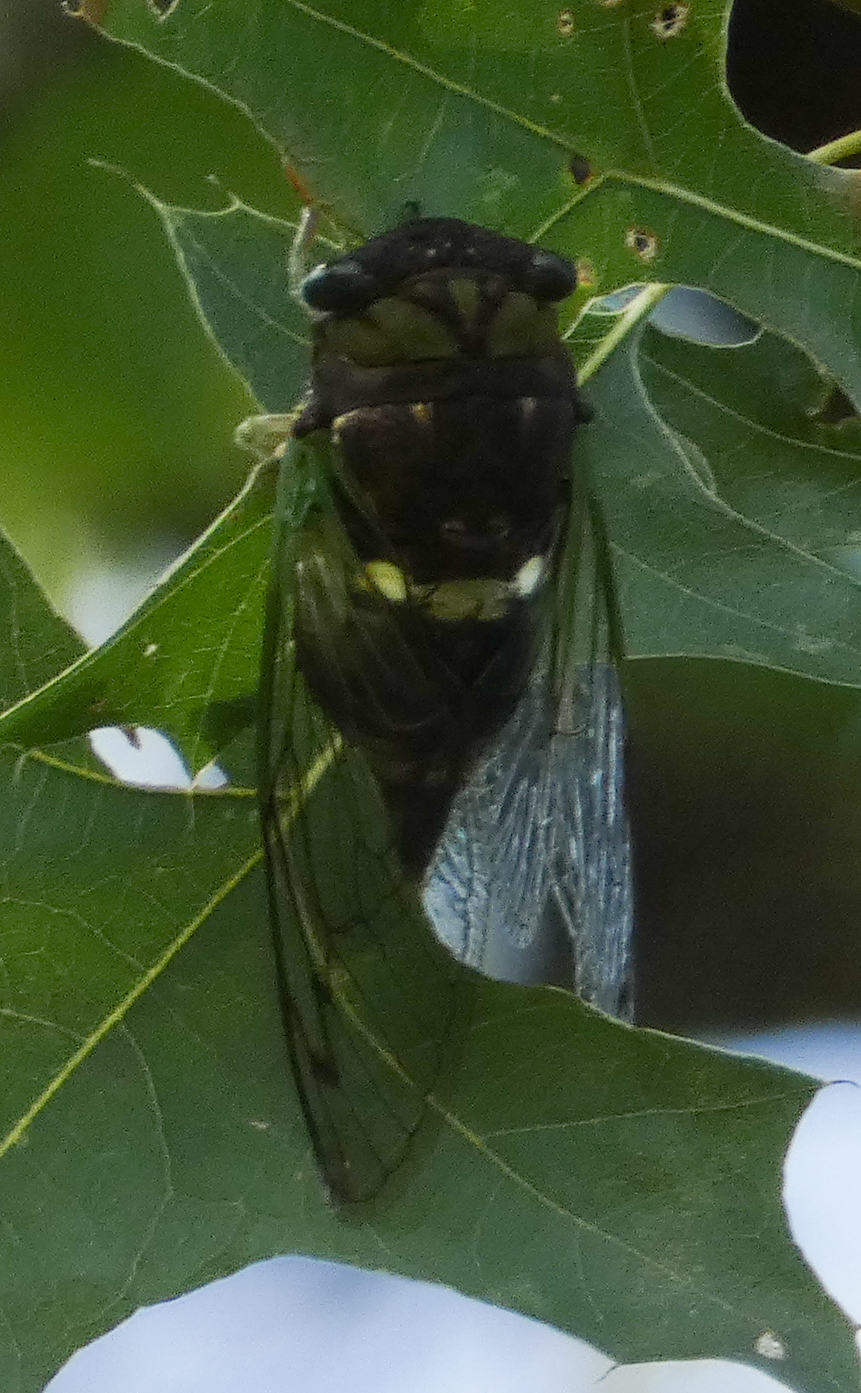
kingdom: Animalia
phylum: Arthropoda
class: Insecta
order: Hemiptera
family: Cicadidae
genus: Neotibicen
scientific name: Neotibicen tibicen
